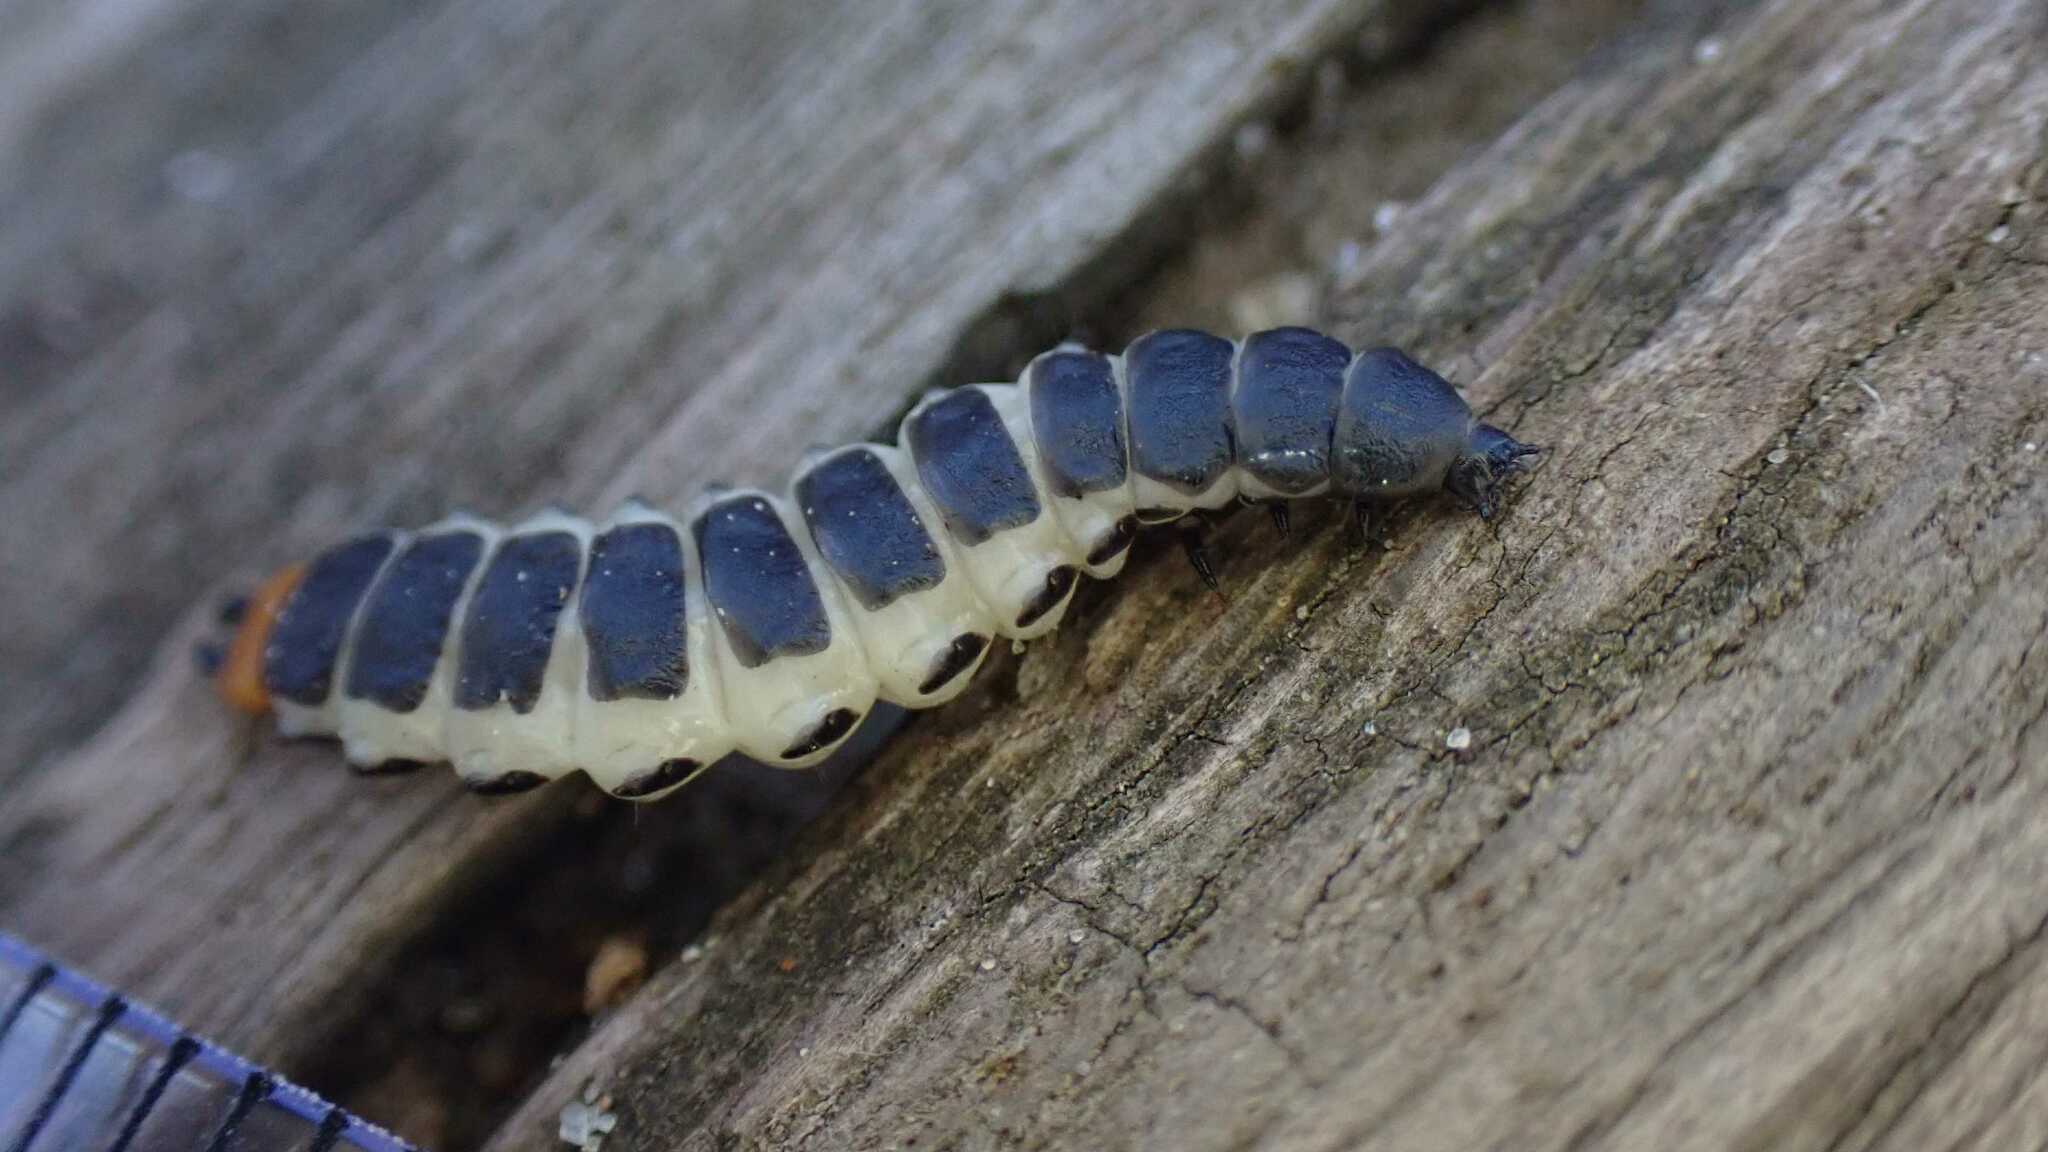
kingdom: Animalia
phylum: Arthropoda
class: Insecta
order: Coleoptera
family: Lycidae
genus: Lygistopterus
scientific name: Lygistopterus sanguineus
